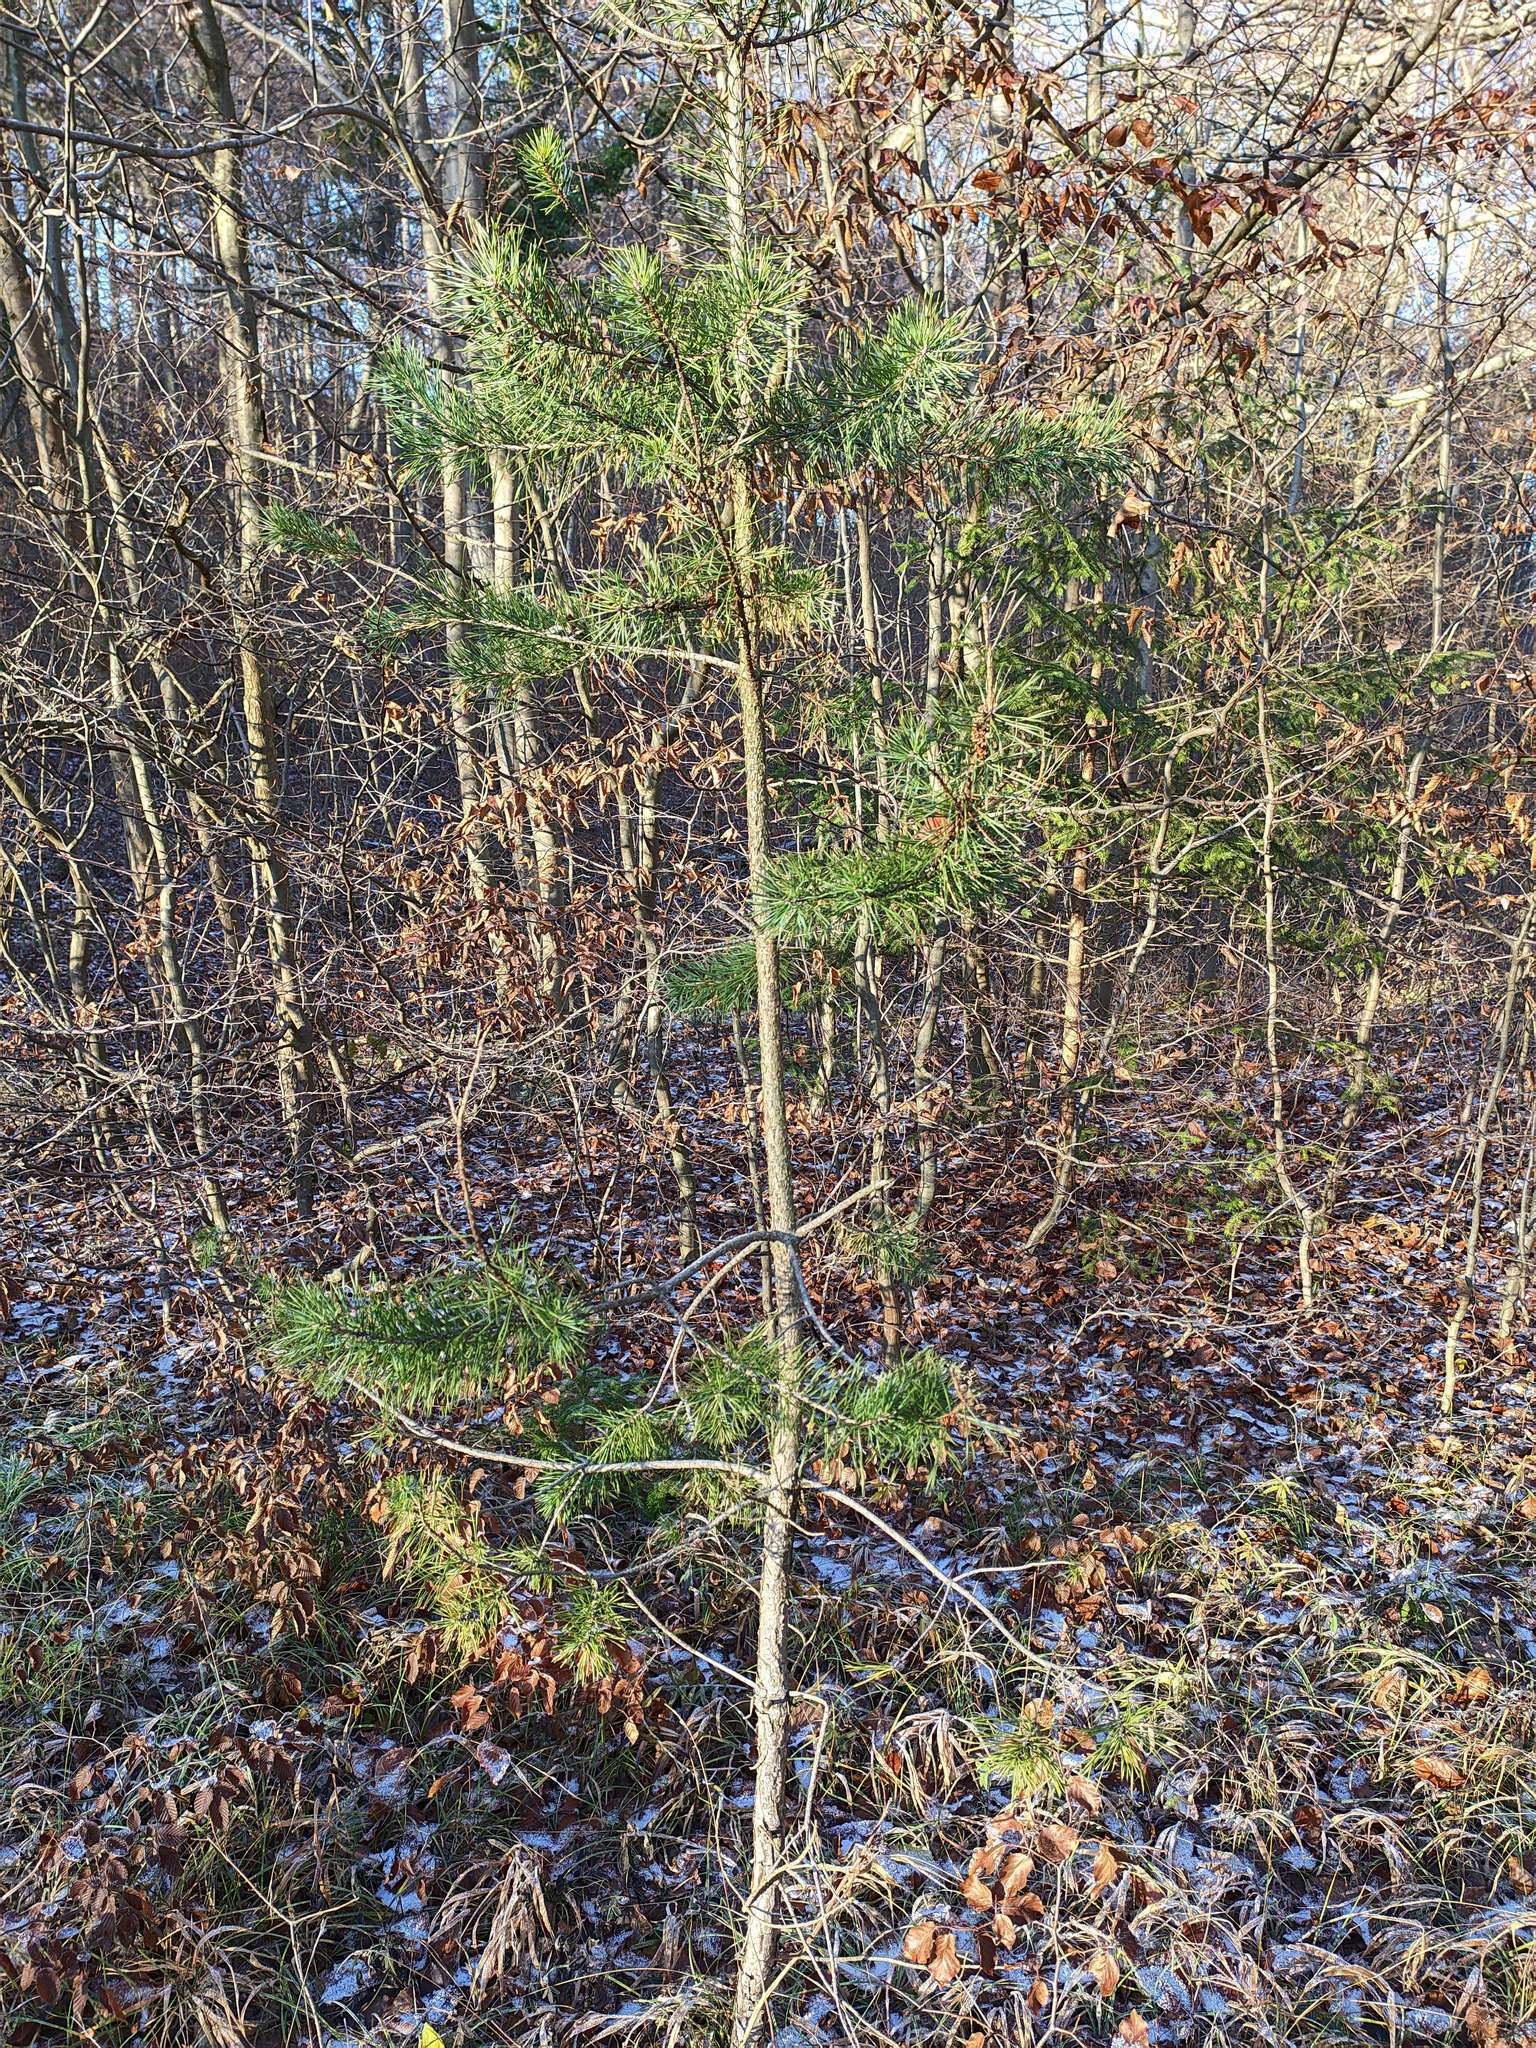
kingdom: Plantae
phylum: Tracheophyta
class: Pinopsida
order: Pinales
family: Pinaceae
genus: Pinus
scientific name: Pinus sylvestris
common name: Scots pine
